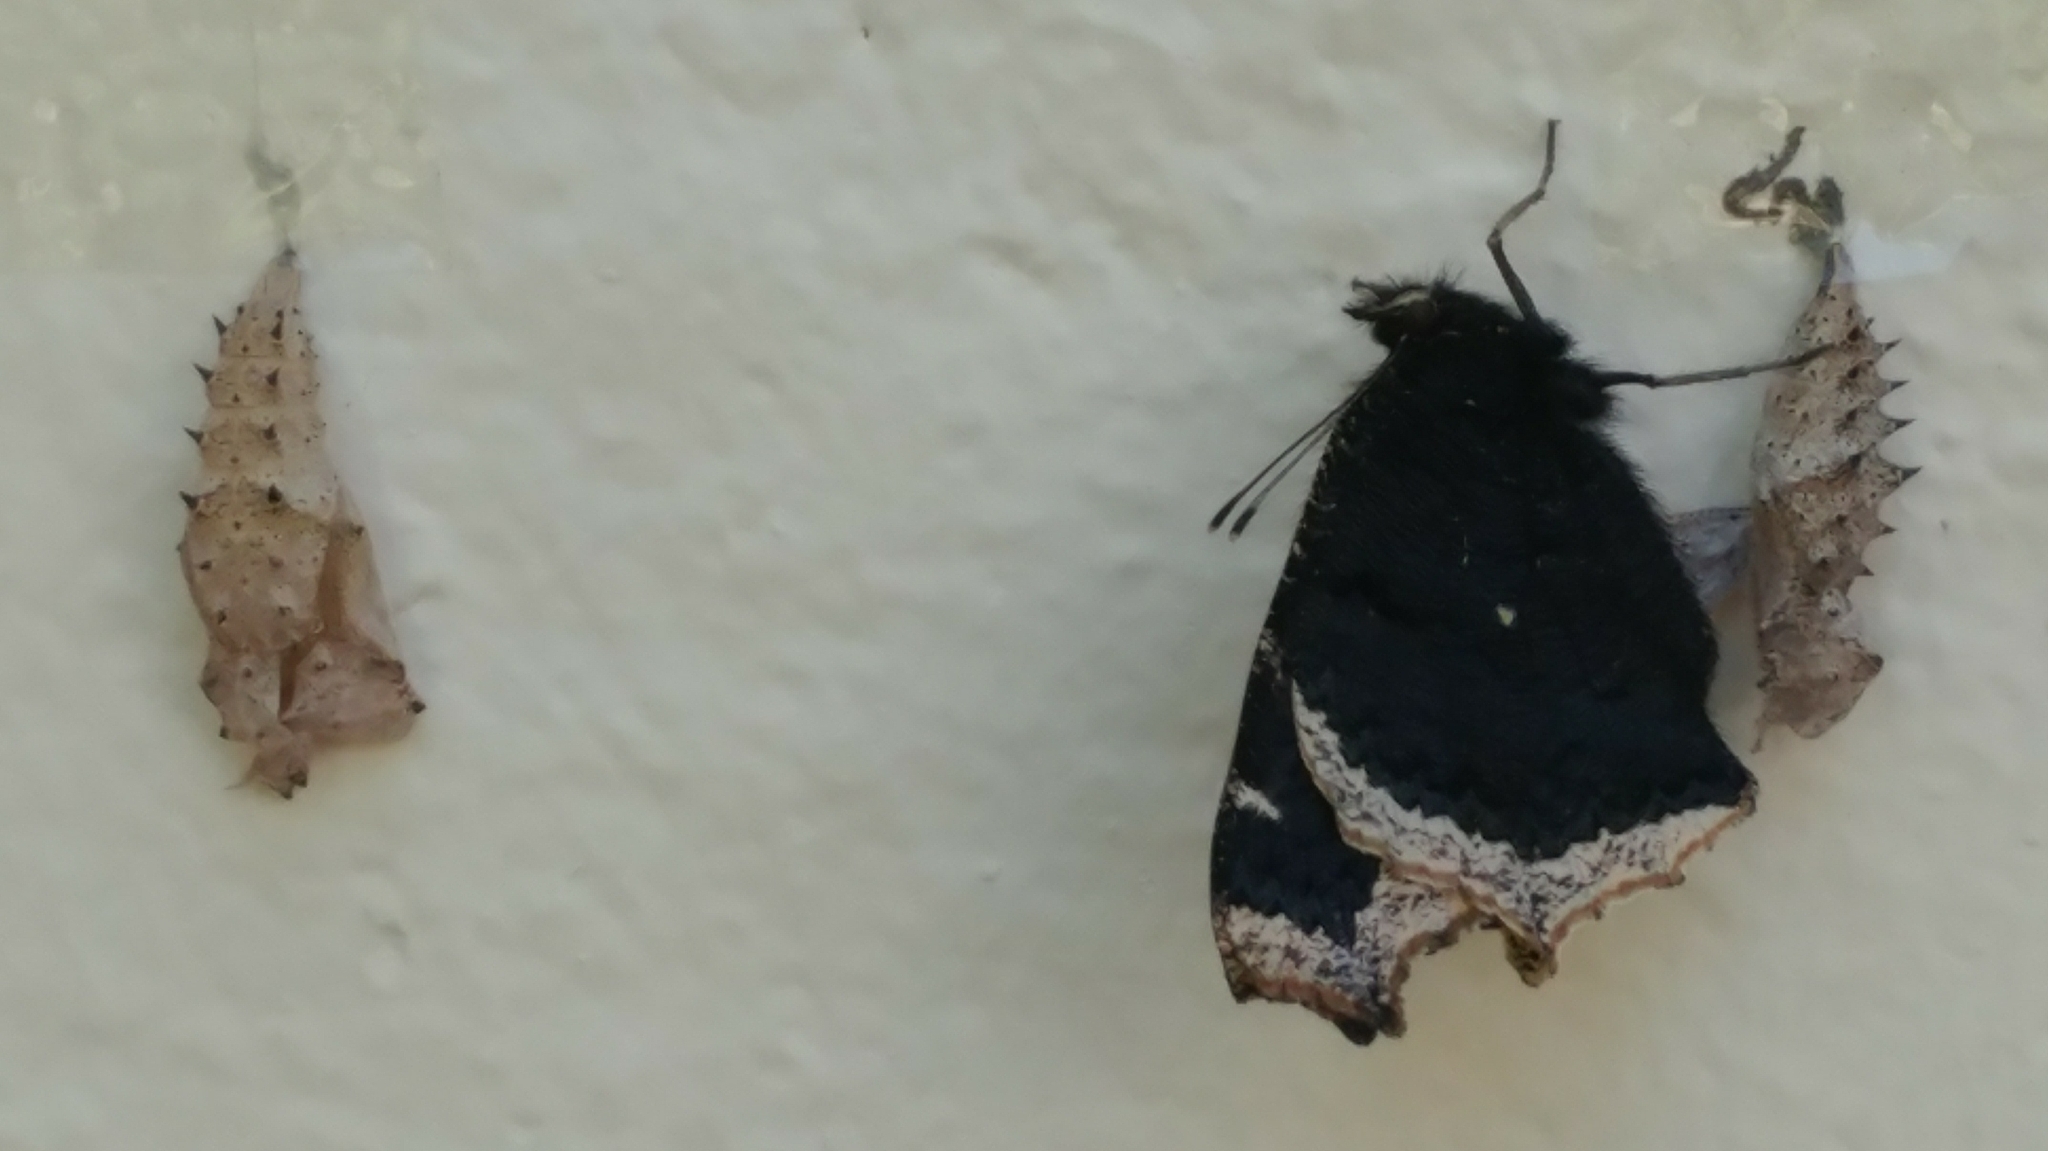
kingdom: Animalia
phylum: Arthropoda
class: Insecta
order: Lepidoptera
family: Nymphalidae
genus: Nymphalis
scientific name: Nymphalis antiopa
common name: Camberwell beauty
